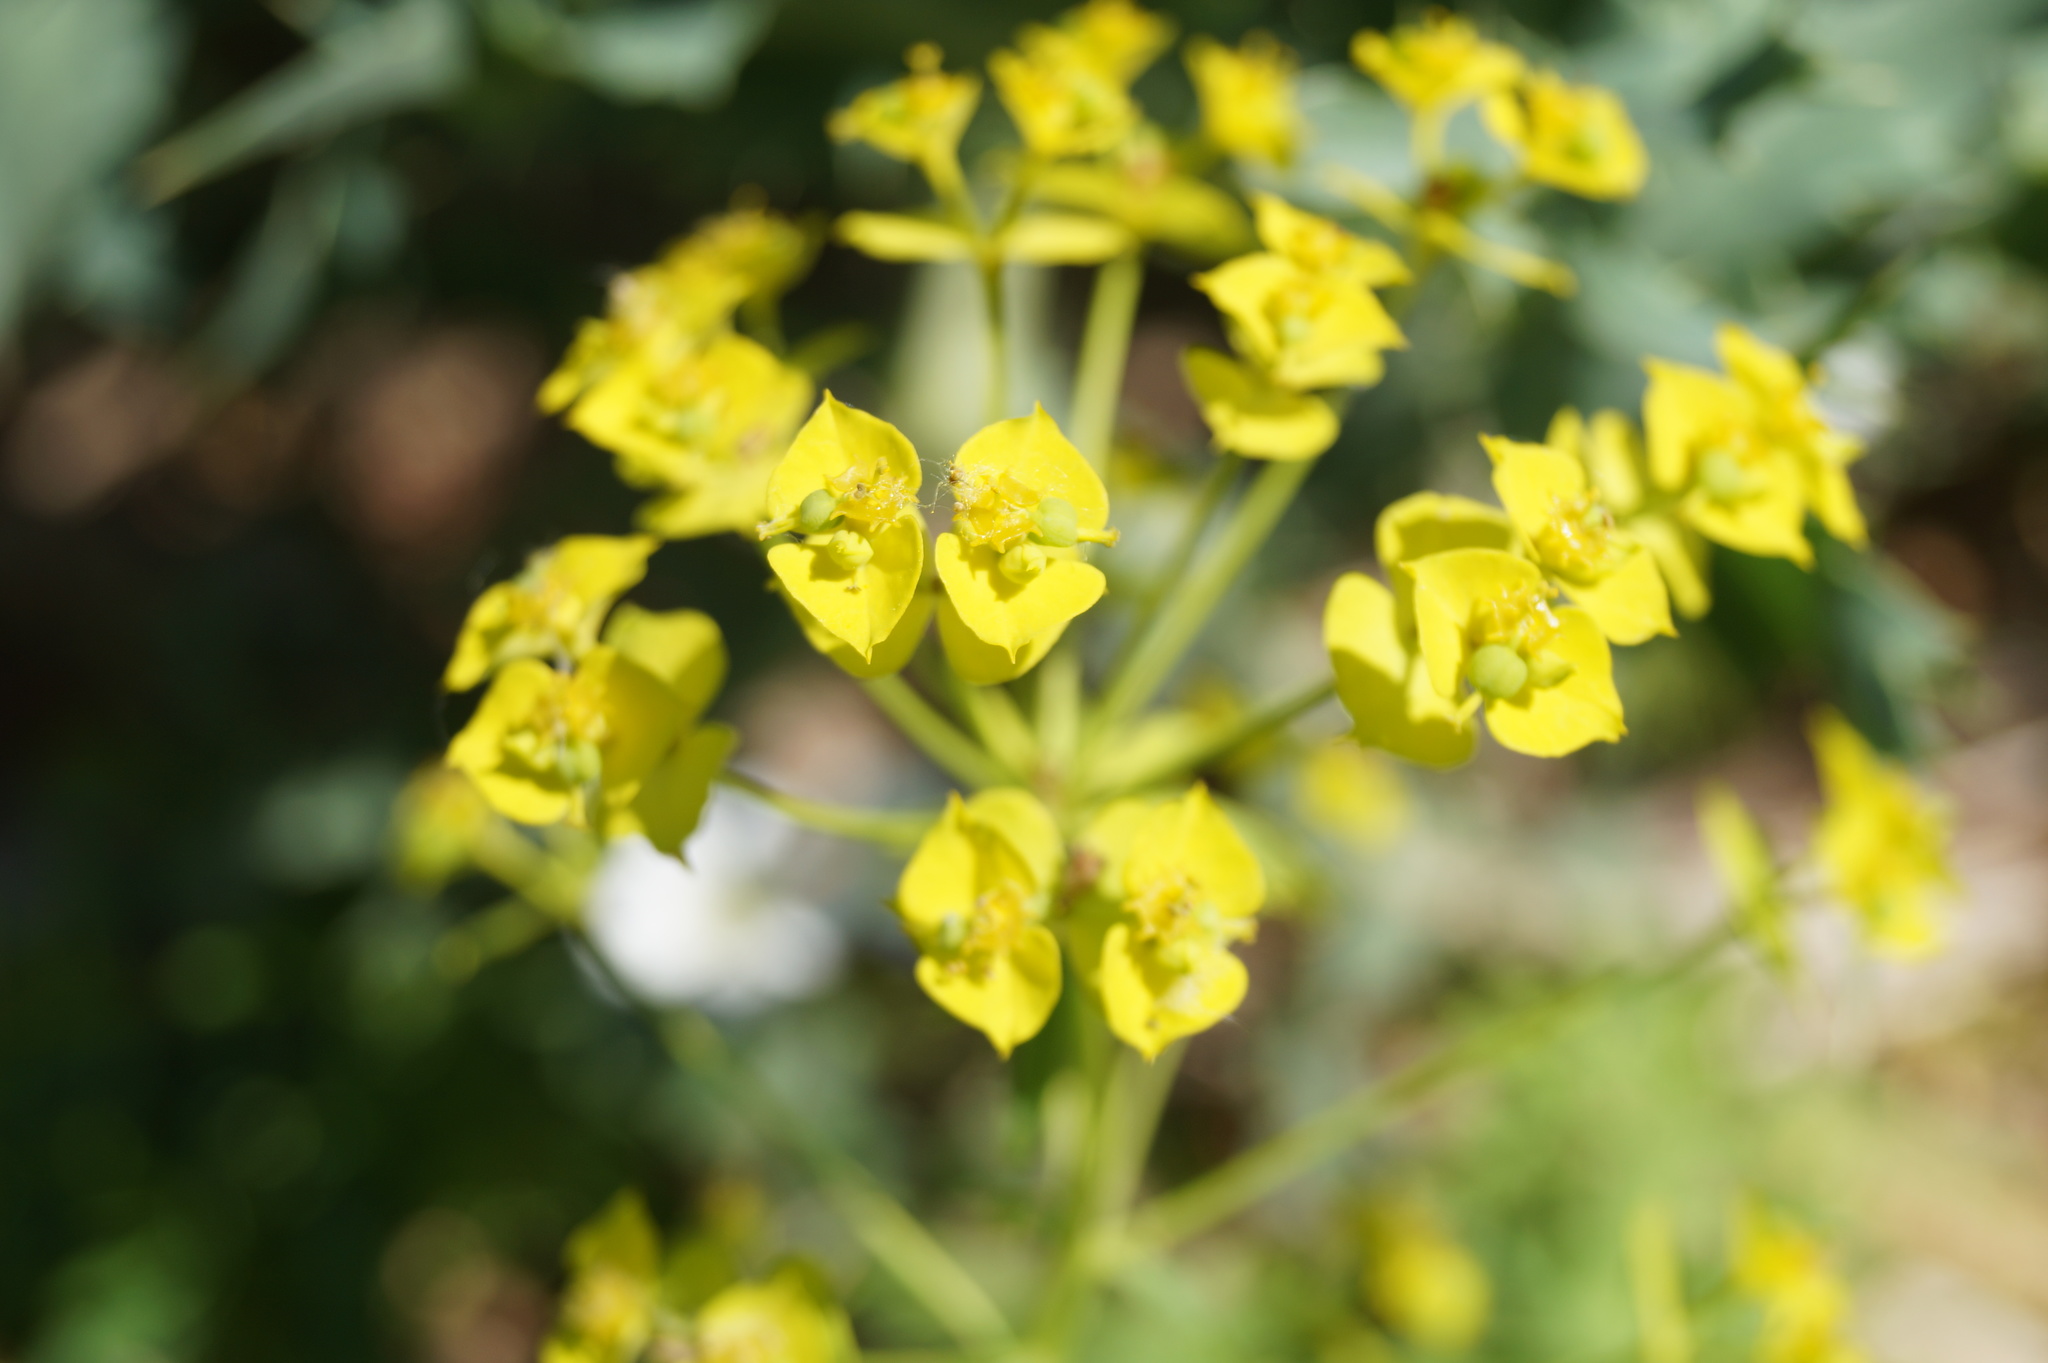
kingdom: Plantae
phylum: Tracheophyta
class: Magnoliopsida
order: Malpighiales
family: Euphorbiaceae
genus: Euphorbia
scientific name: Euphorbia esula
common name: Leafy spurge
